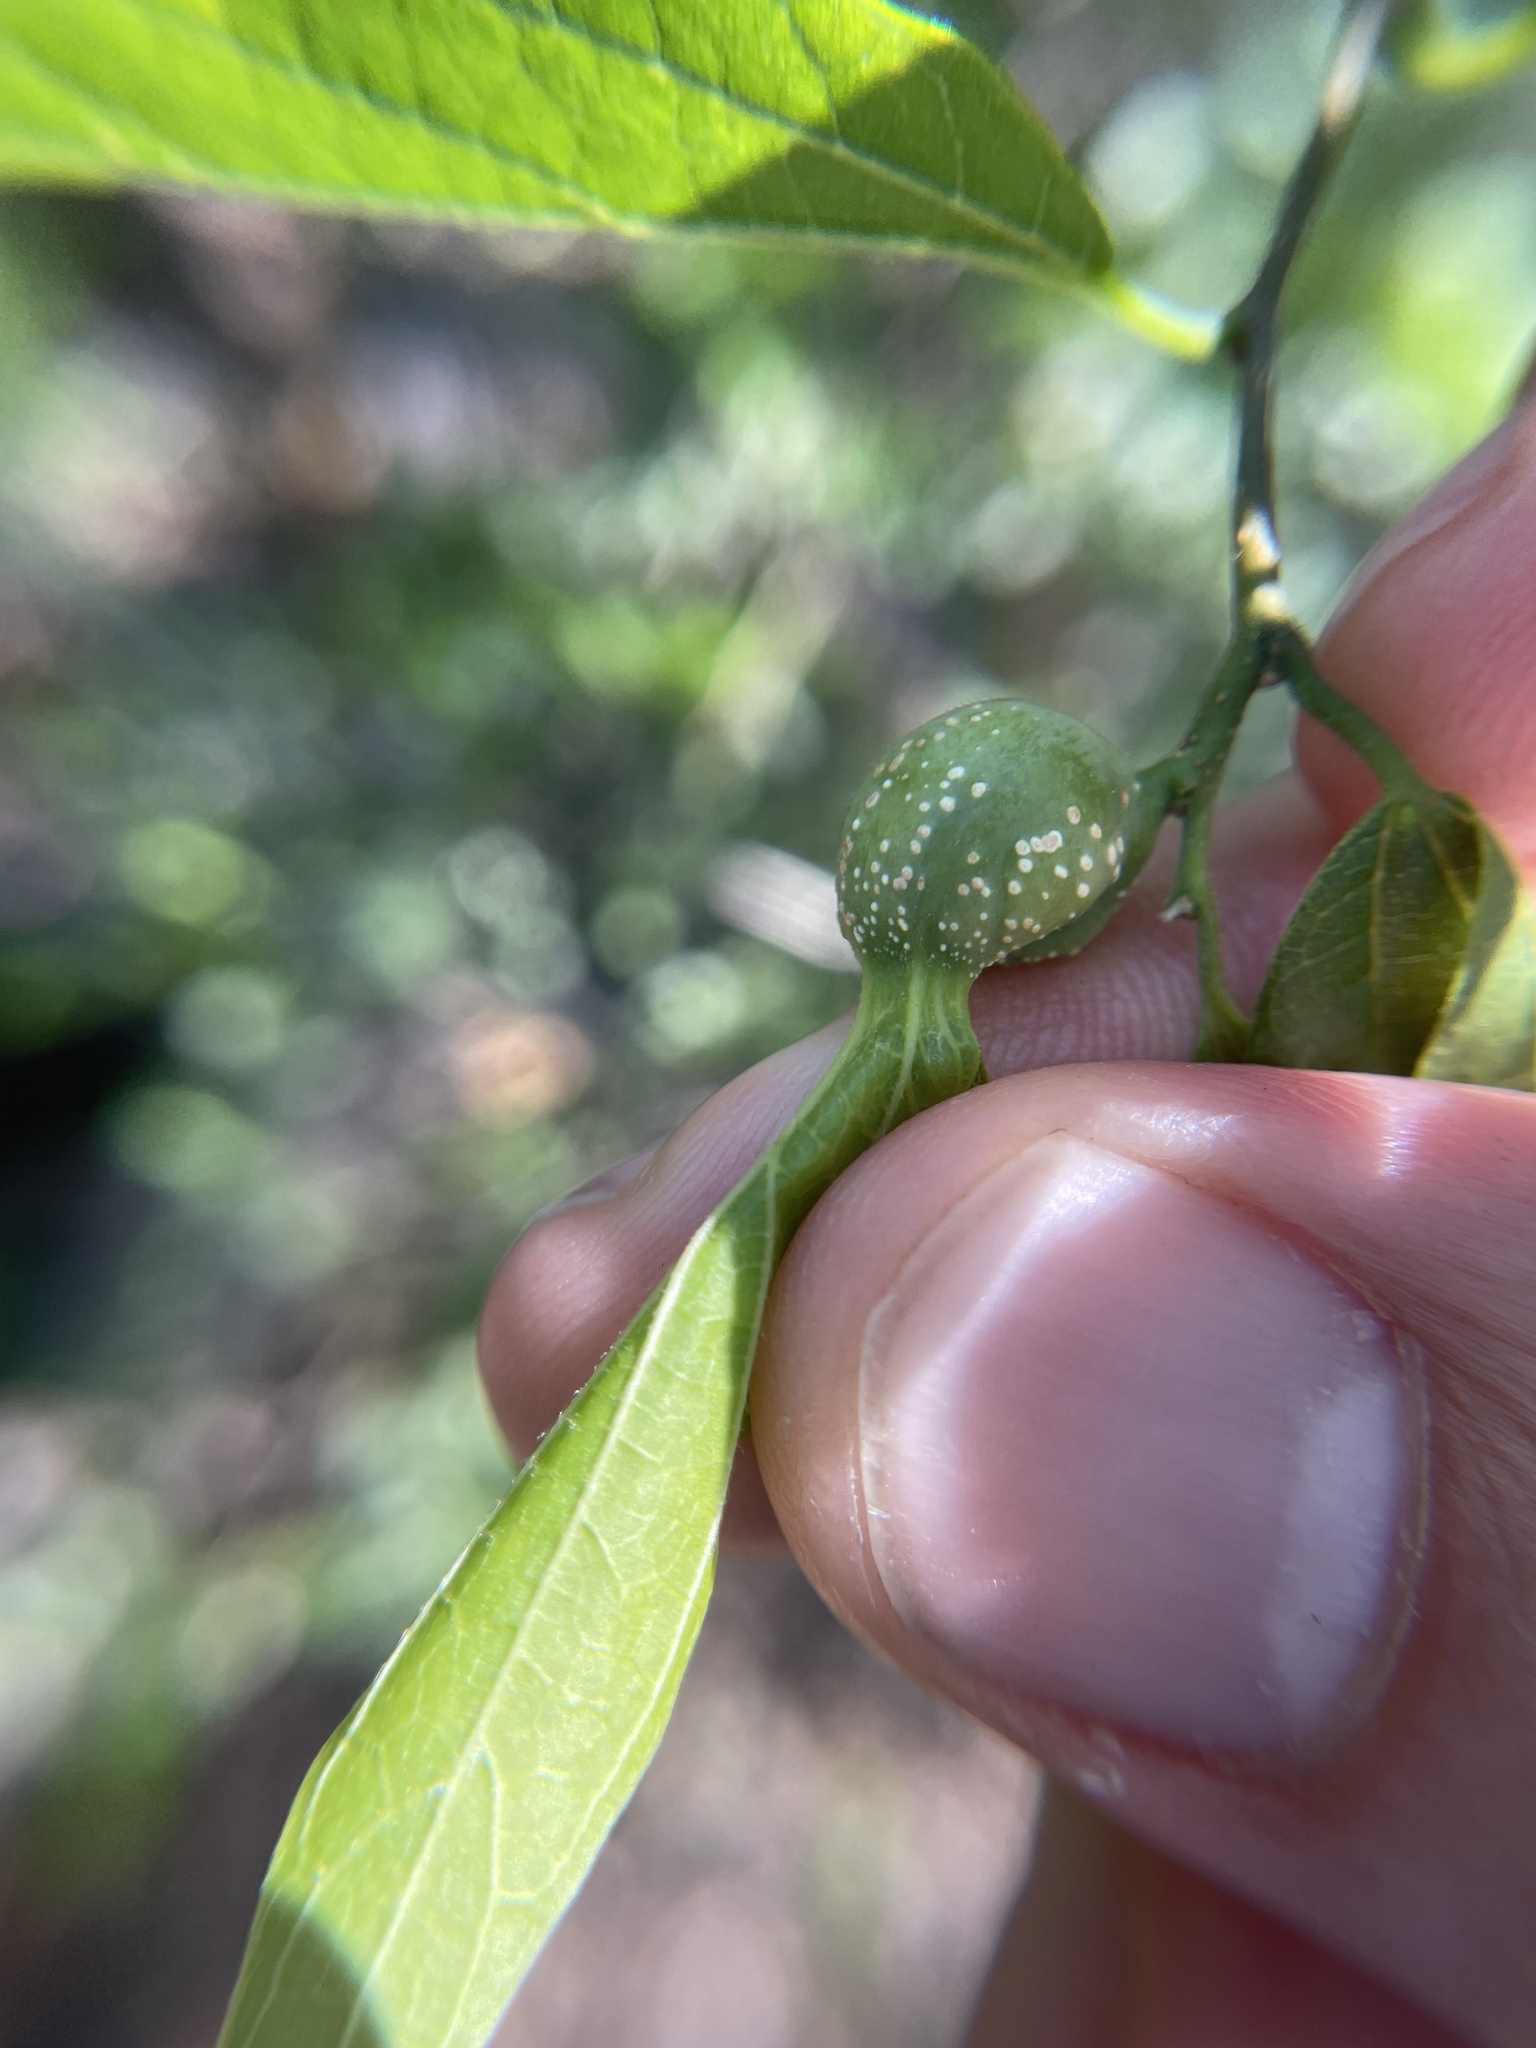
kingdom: Animalia
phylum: Arthropoda
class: Insecta
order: Hemiptera
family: Aphalaridae
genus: Pachypsylla
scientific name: Pachypsylla venusta
